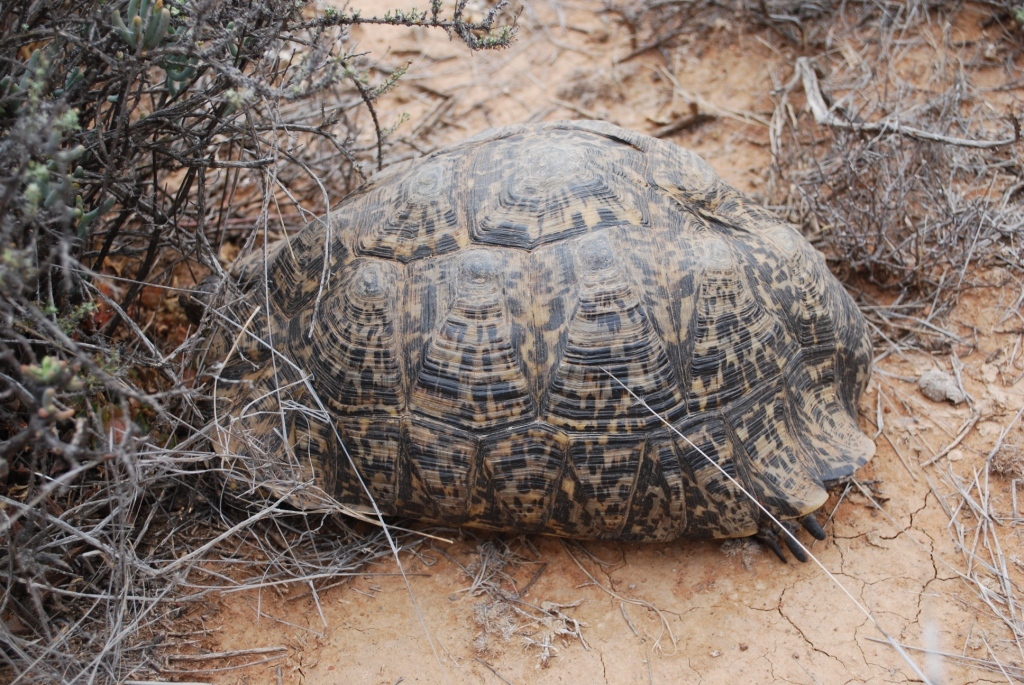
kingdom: Animalia
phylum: Chordata
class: Testudines
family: Testudinidae
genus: Stigmochelys
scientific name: Stigmochelys pardalis
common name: Leopard tortoise
